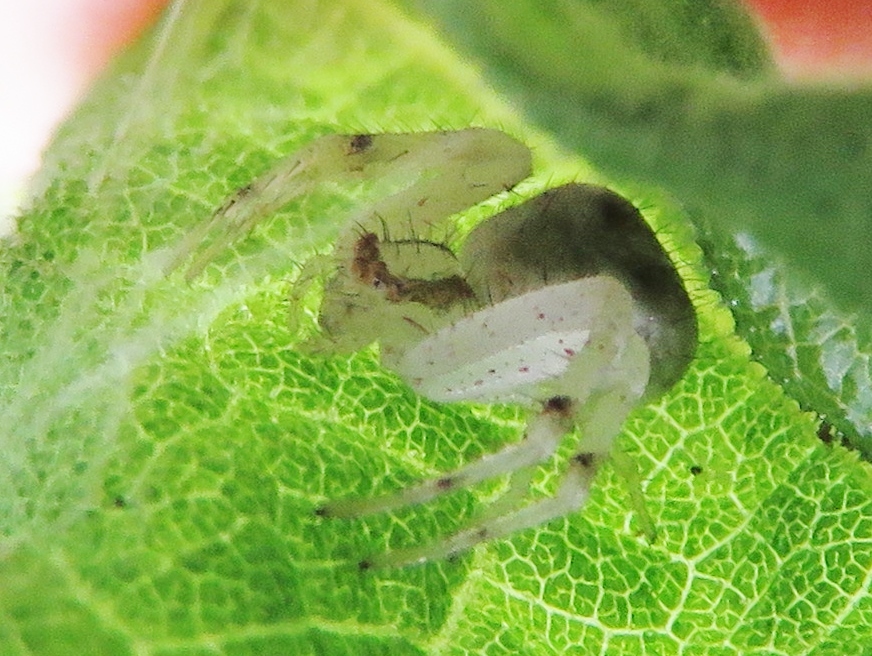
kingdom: Animalia
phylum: Arthropoda
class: Arachnida
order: Araneae
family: Thomisidae
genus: Mecaphesa
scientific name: Mecaphesa
